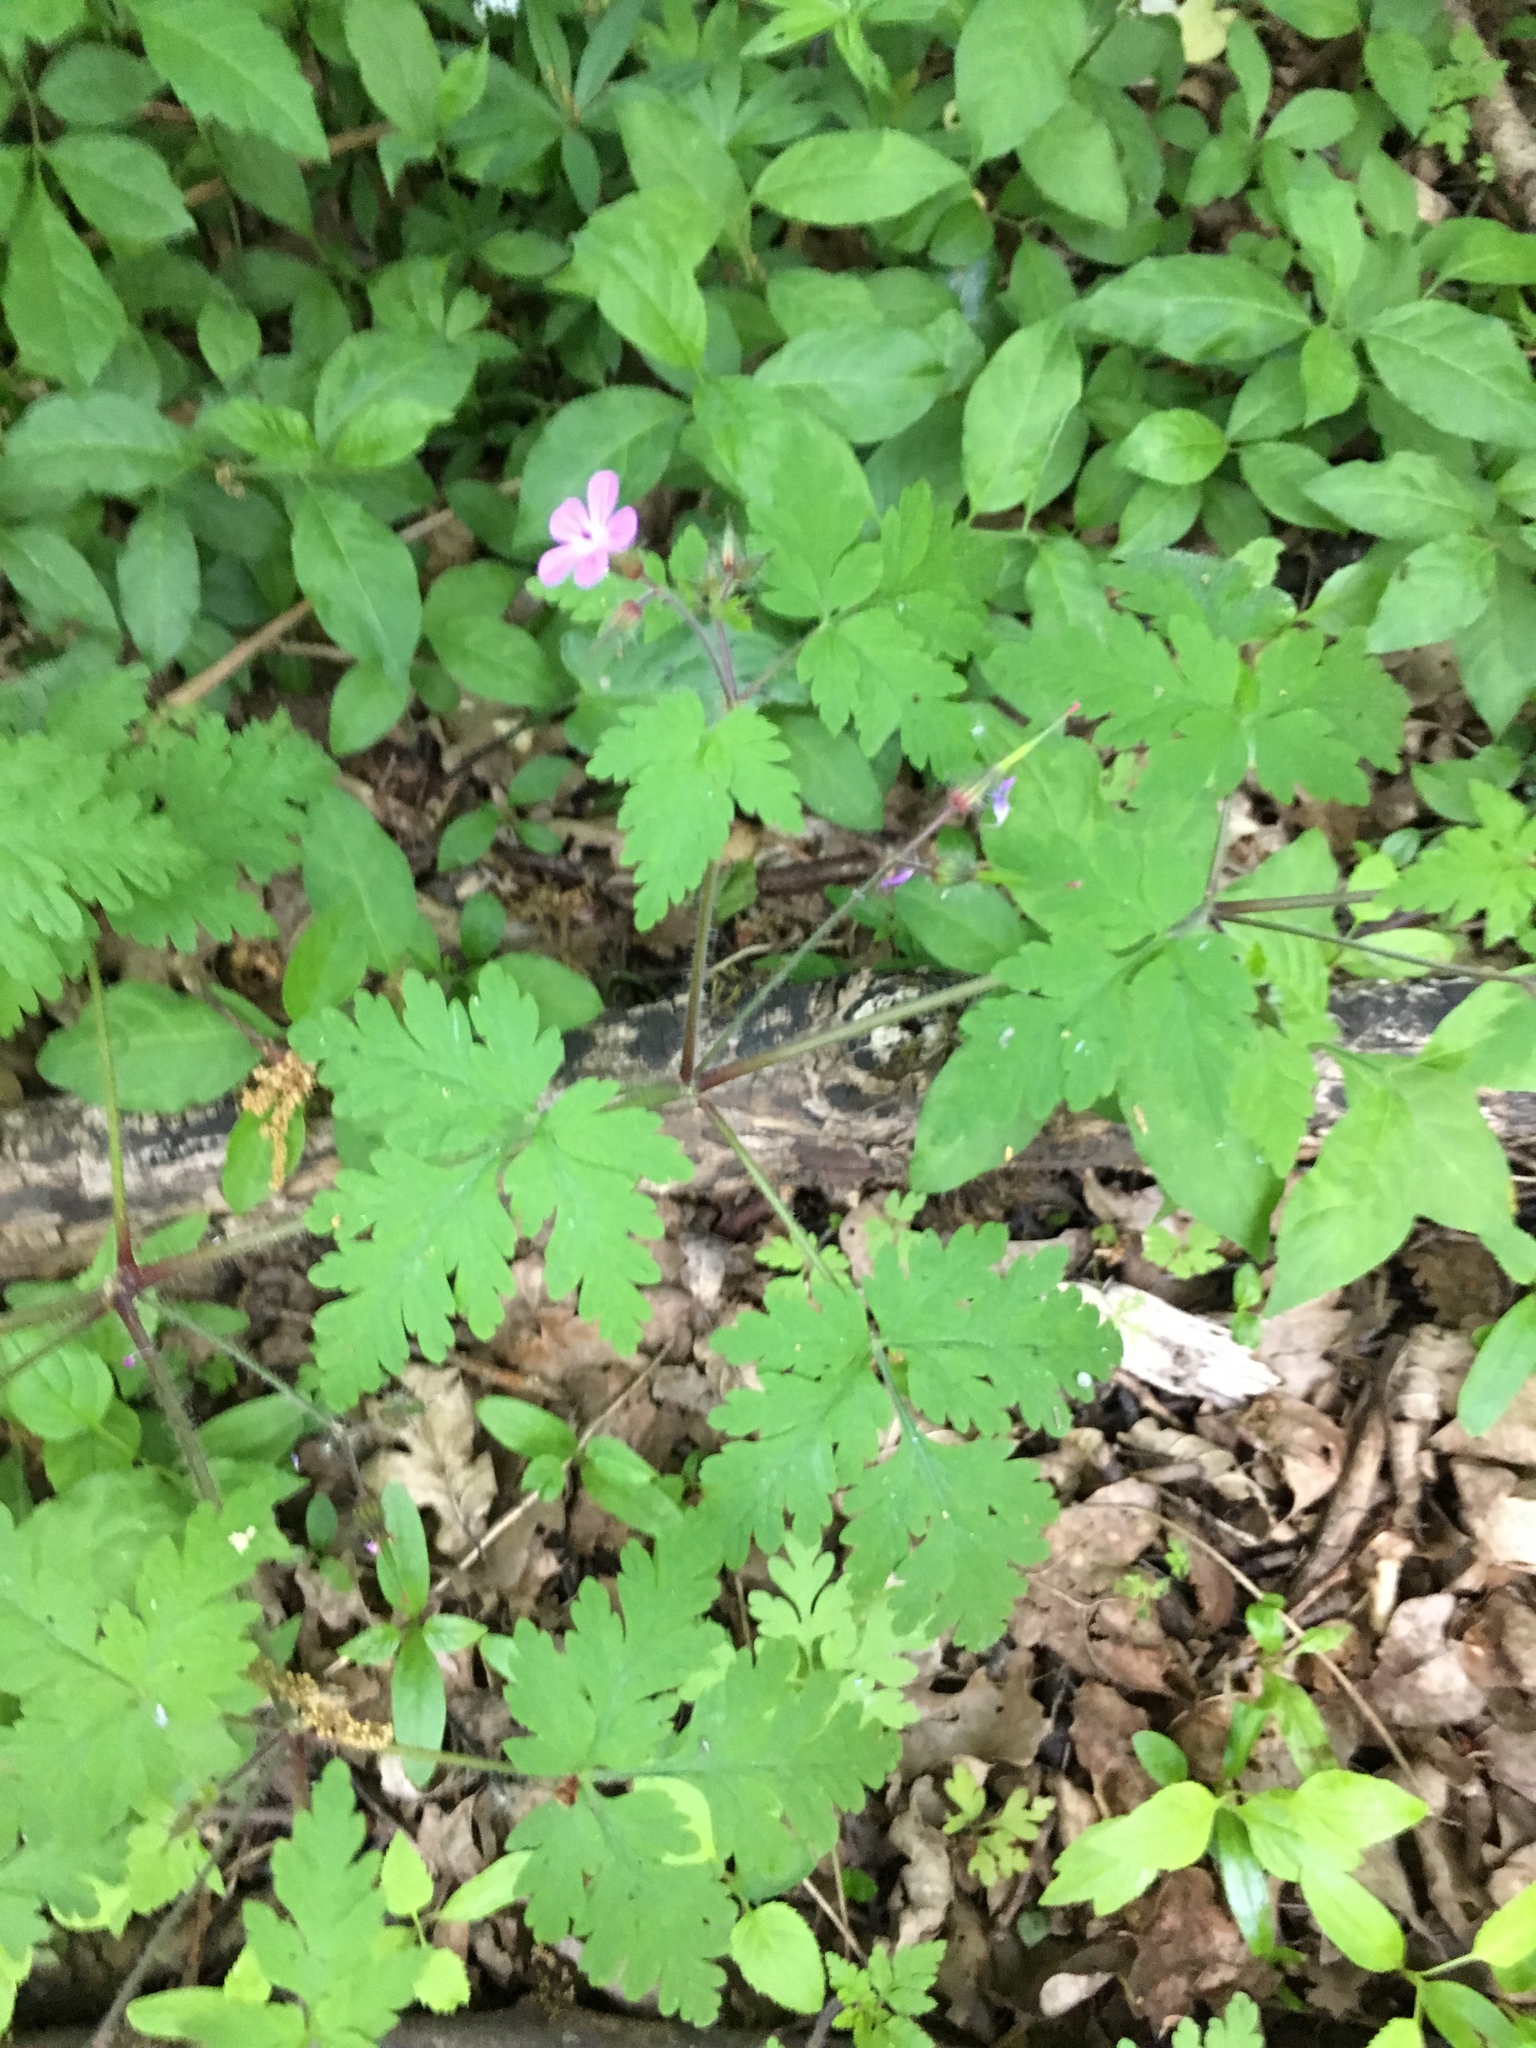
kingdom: Plantae
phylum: Tracheophyta
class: Magnoliopsida
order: Geraniales
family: Geraniaceae
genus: Geranium
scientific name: Geranium robertianum
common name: Herb-robert
